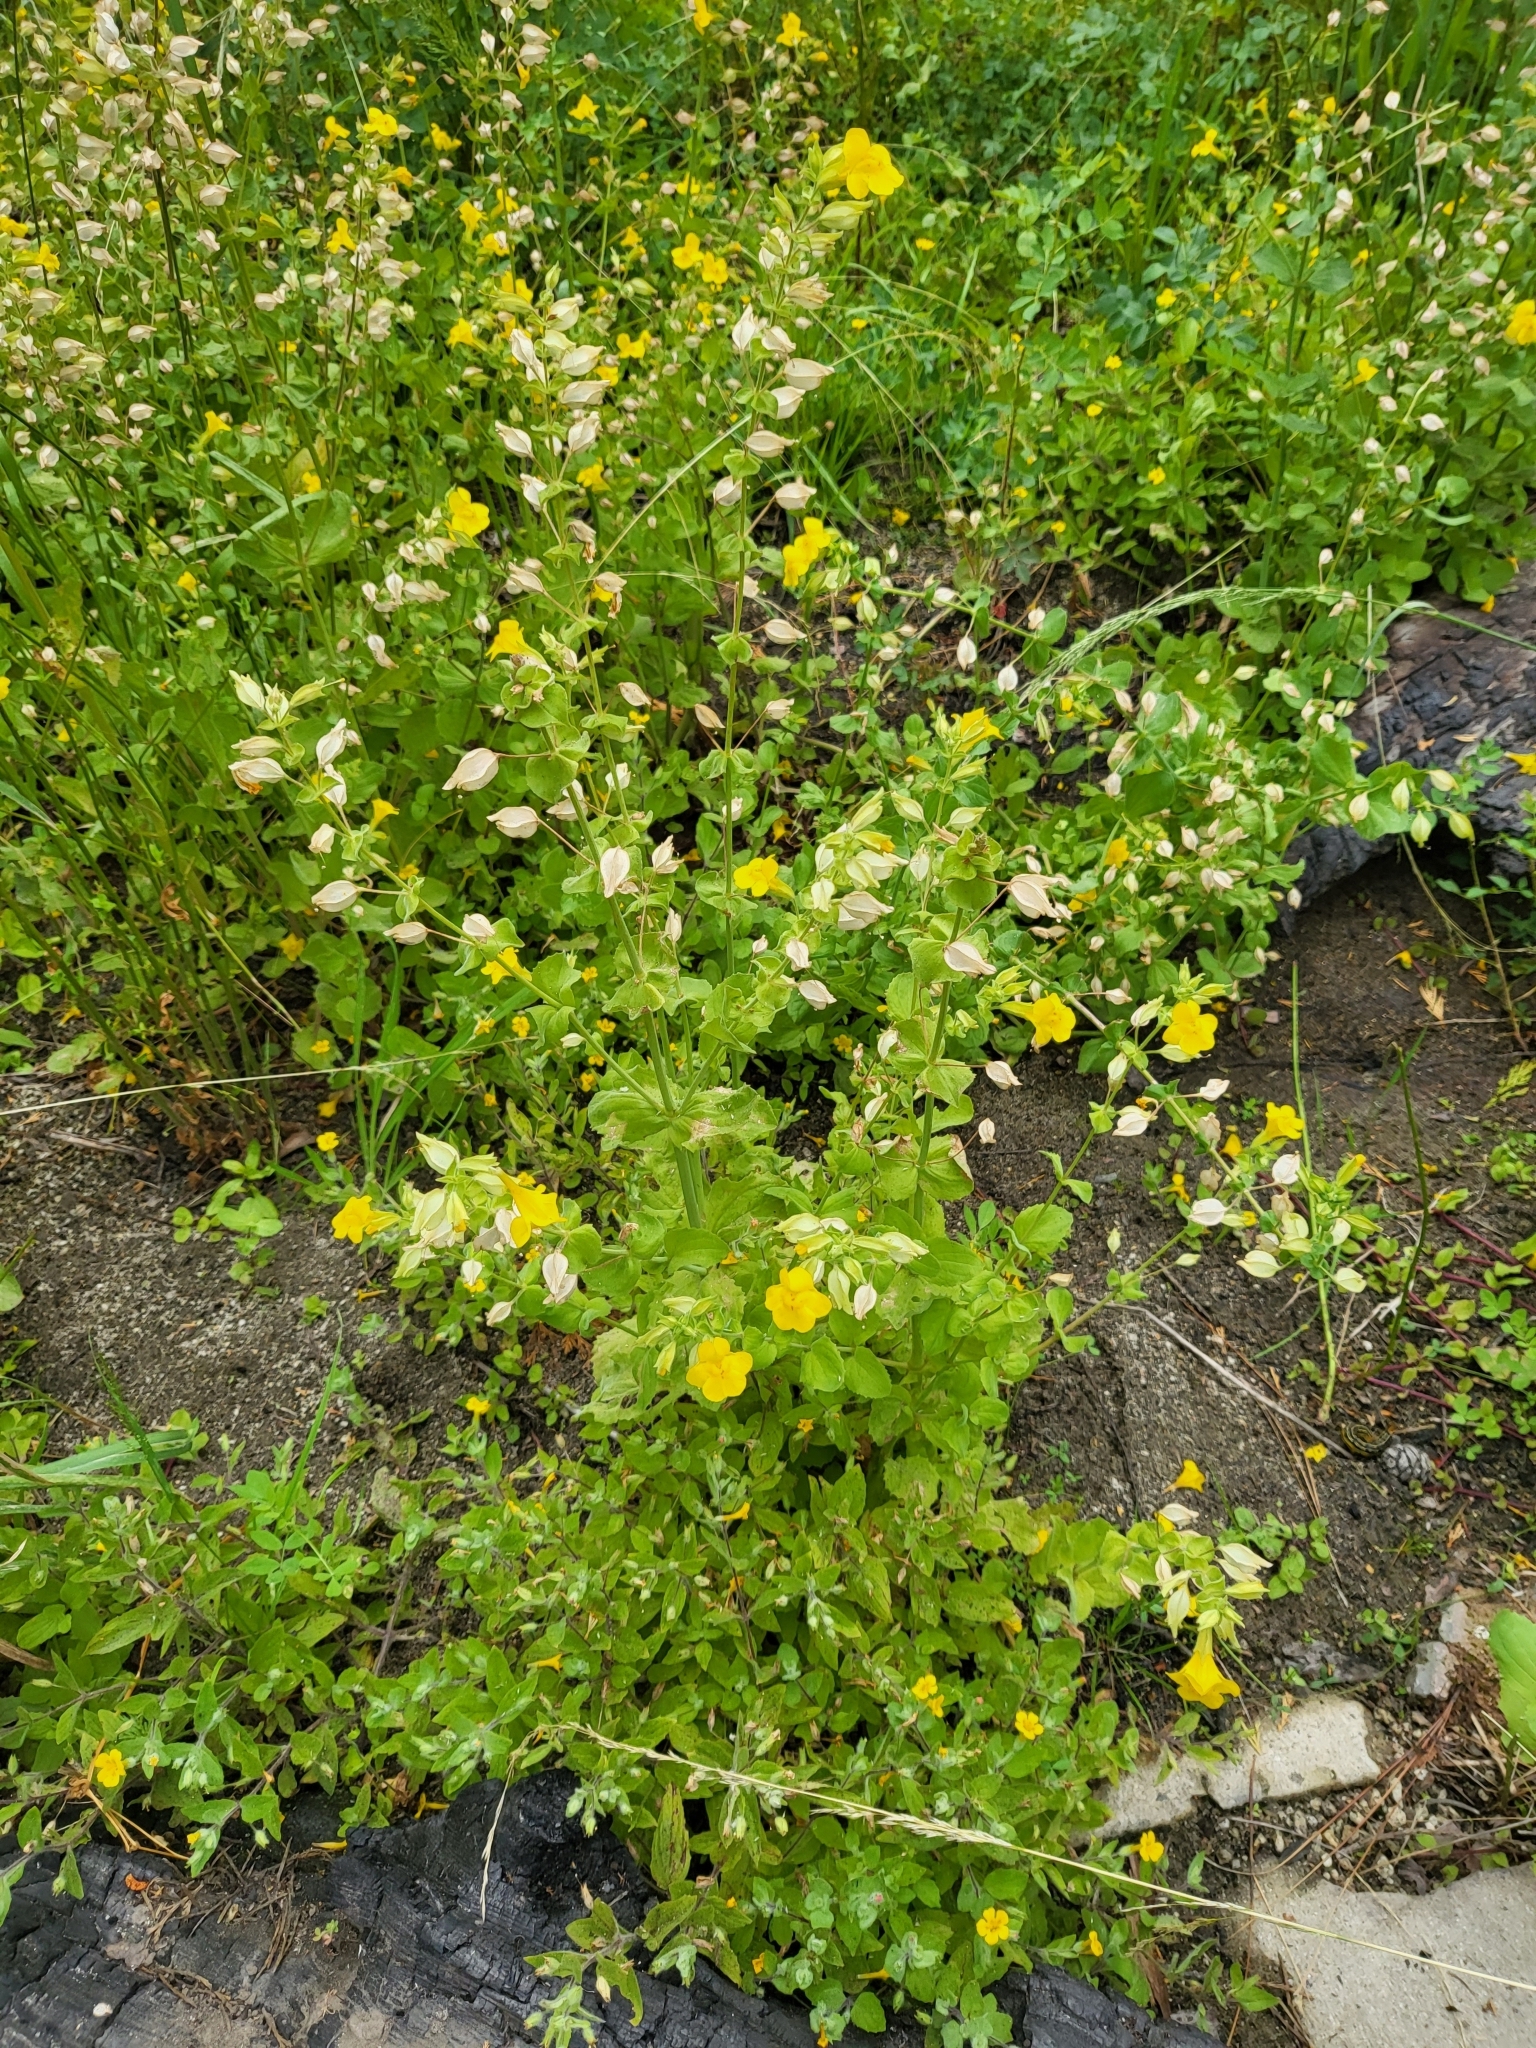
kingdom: Plantae
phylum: Tracheophyta
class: Magnoliopsida
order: Lamiales
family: Phrymaceae
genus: Erythranthe
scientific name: Erythranthe guttata
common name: Monkeyflower
